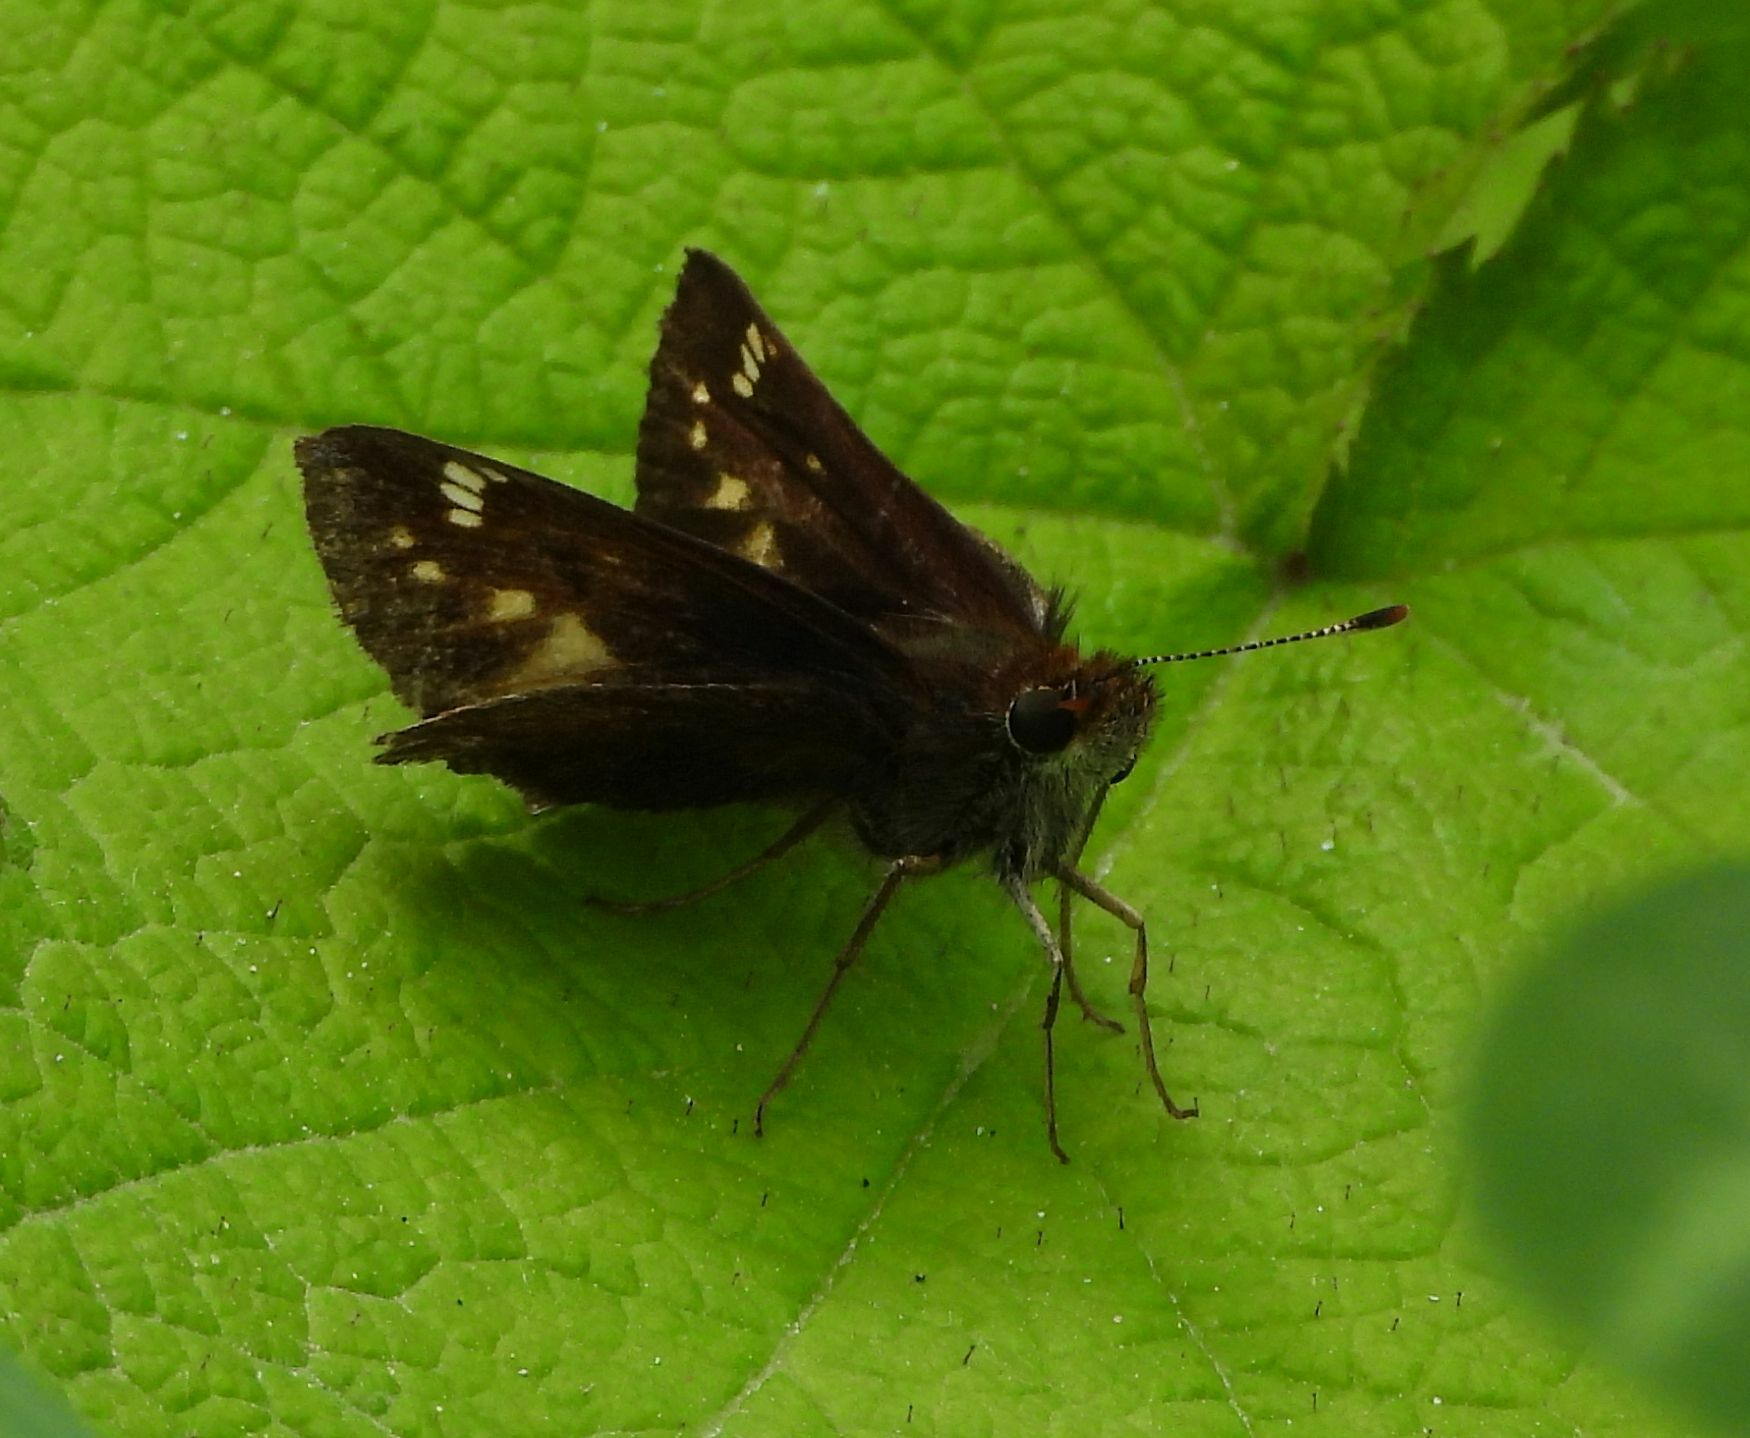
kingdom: Animalia
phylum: Arthropoda
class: Insecta
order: Lepidoptera
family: Hesperiidae
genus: Lon
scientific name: Lon hobomok
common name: Hobomok skipper
